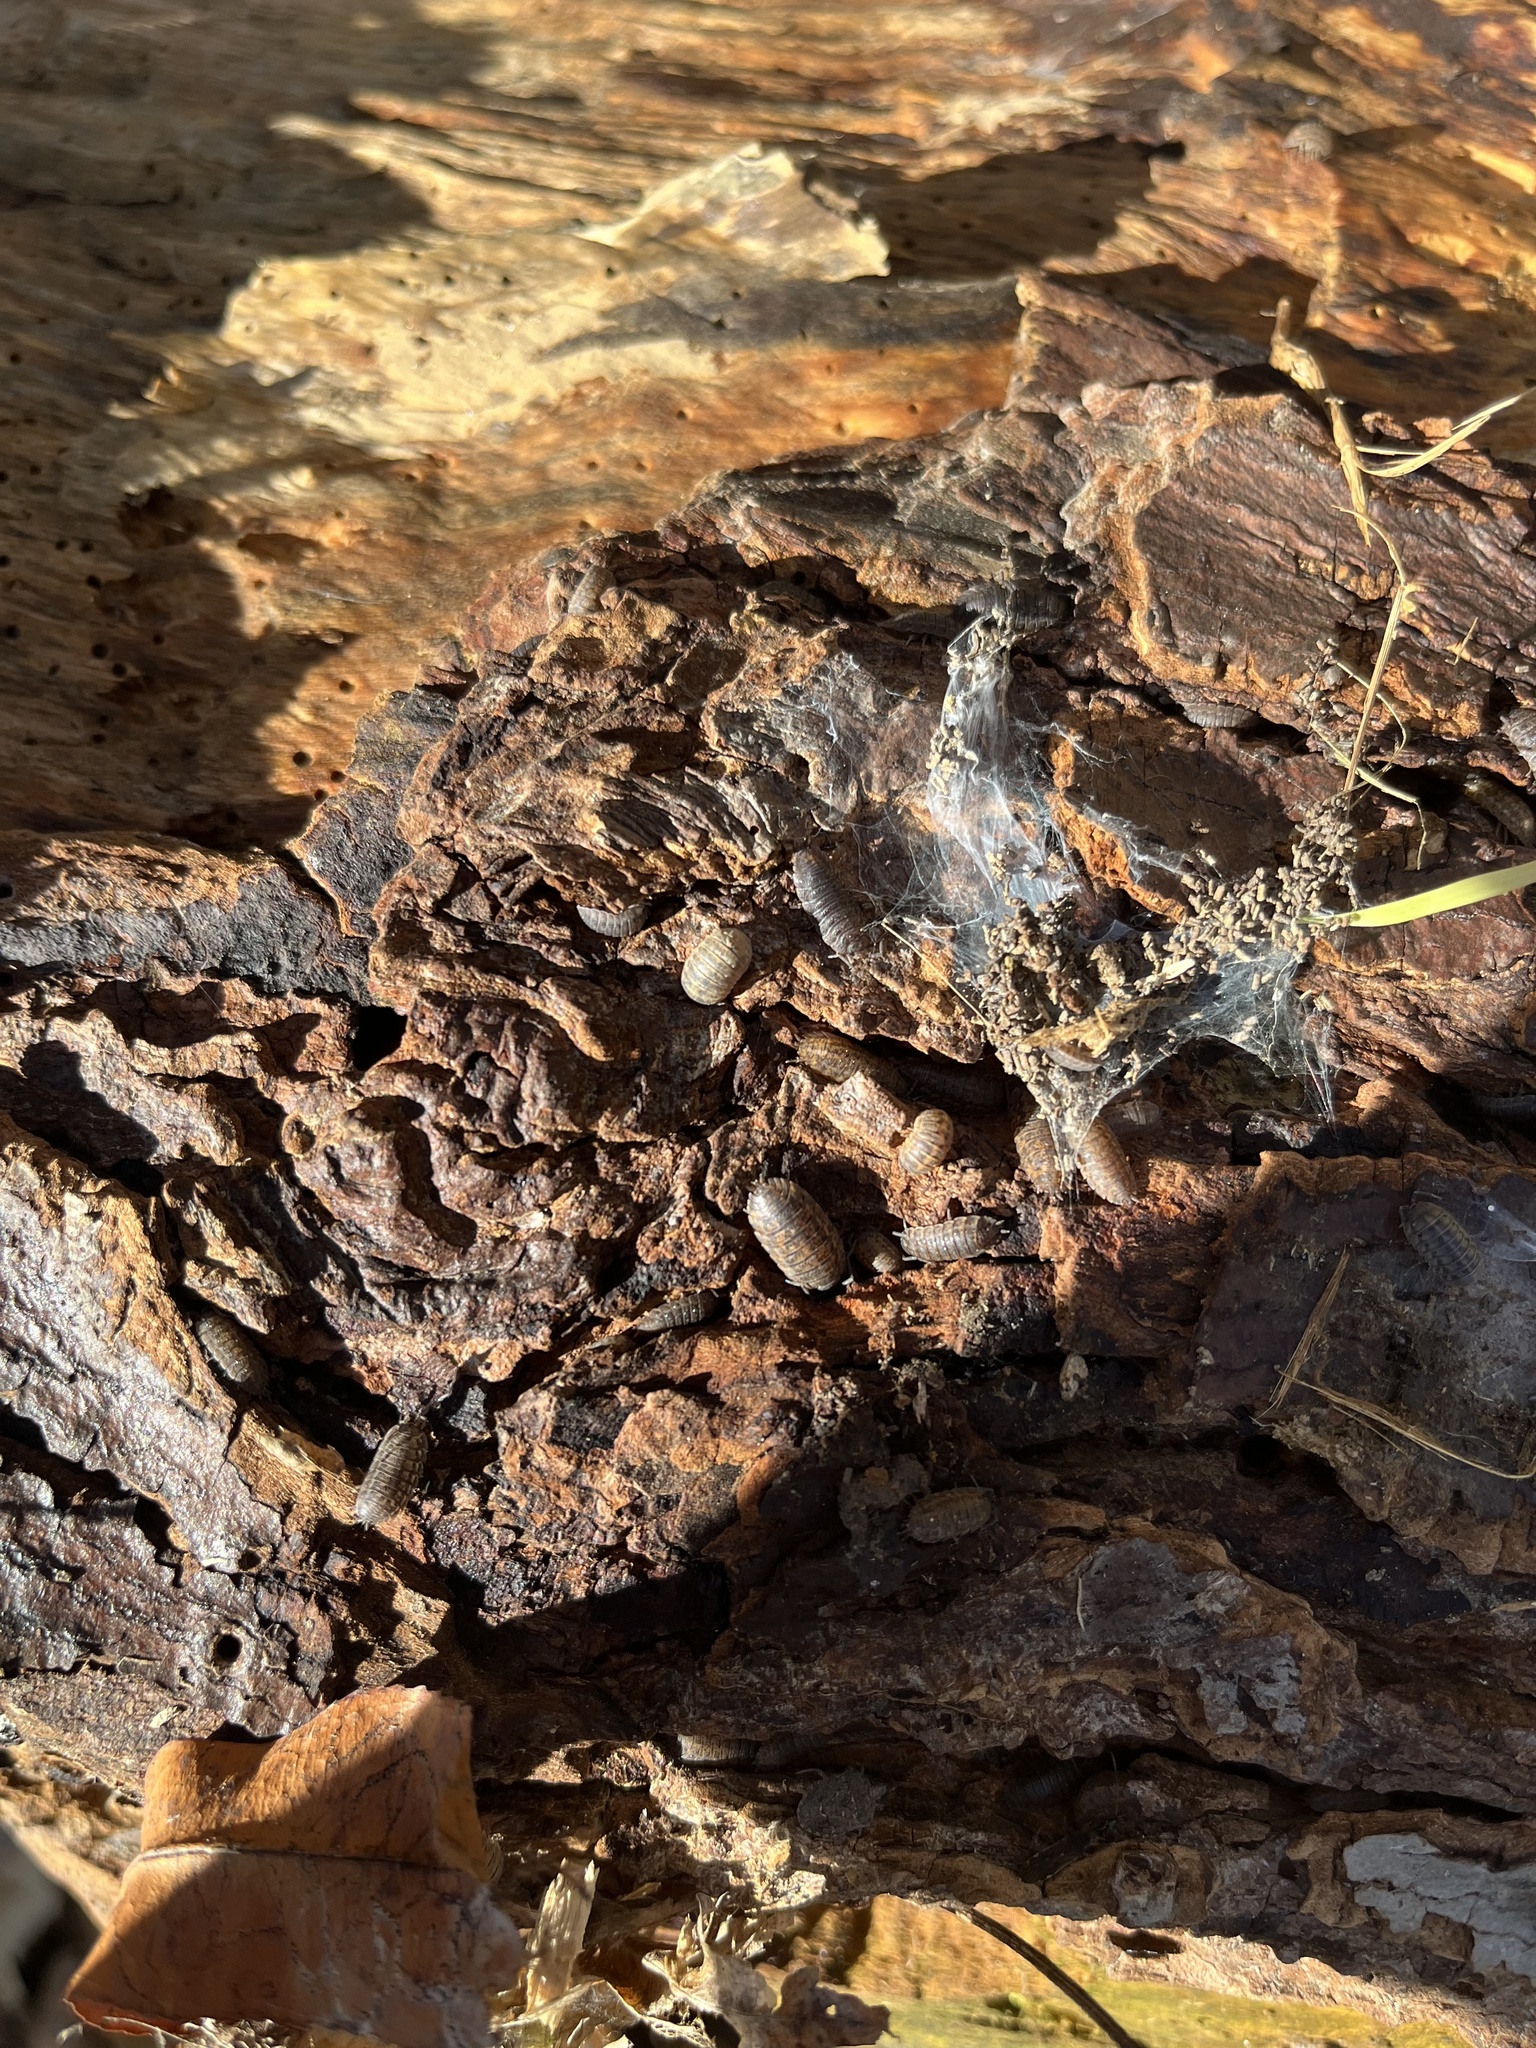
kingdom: Animalia
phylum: Arthropoda
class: Malacostraca
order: Isopoda
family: Trachelipodidae
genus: Trachelipus
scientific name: Trachelipus rathkii
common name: Isopod
